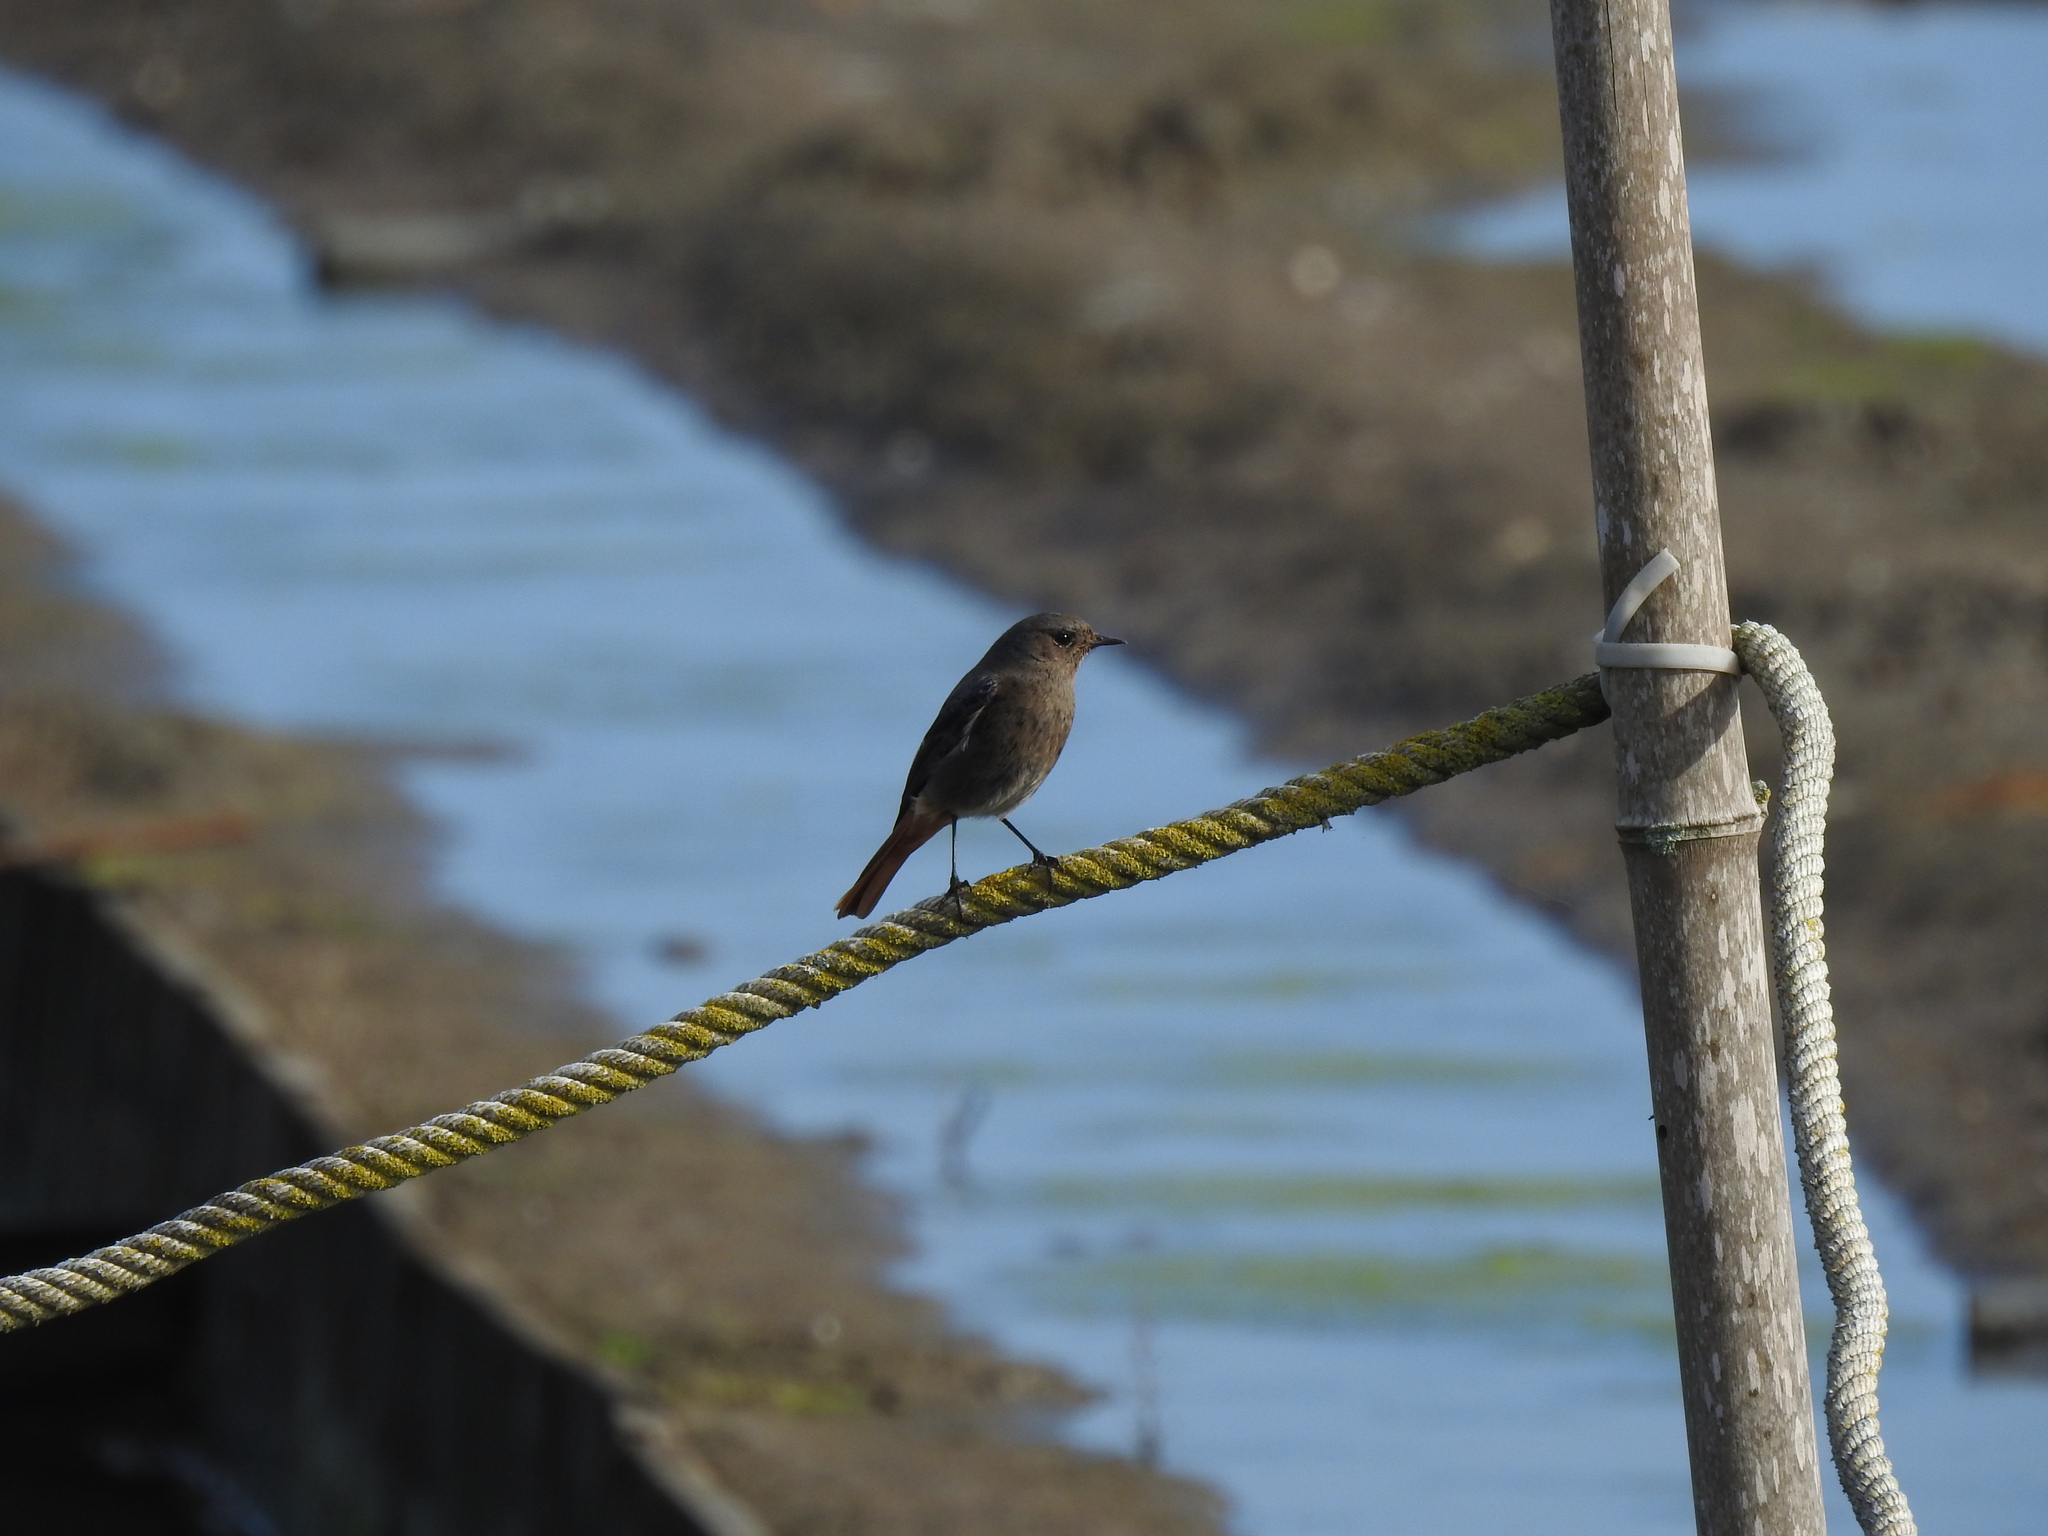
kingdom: Animalia
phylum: Chordata
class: Aves
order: Passeriformes
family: Muscicapidae
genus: Phoenicurus
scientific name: Phoenicurus ochruros
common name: Black redstart
